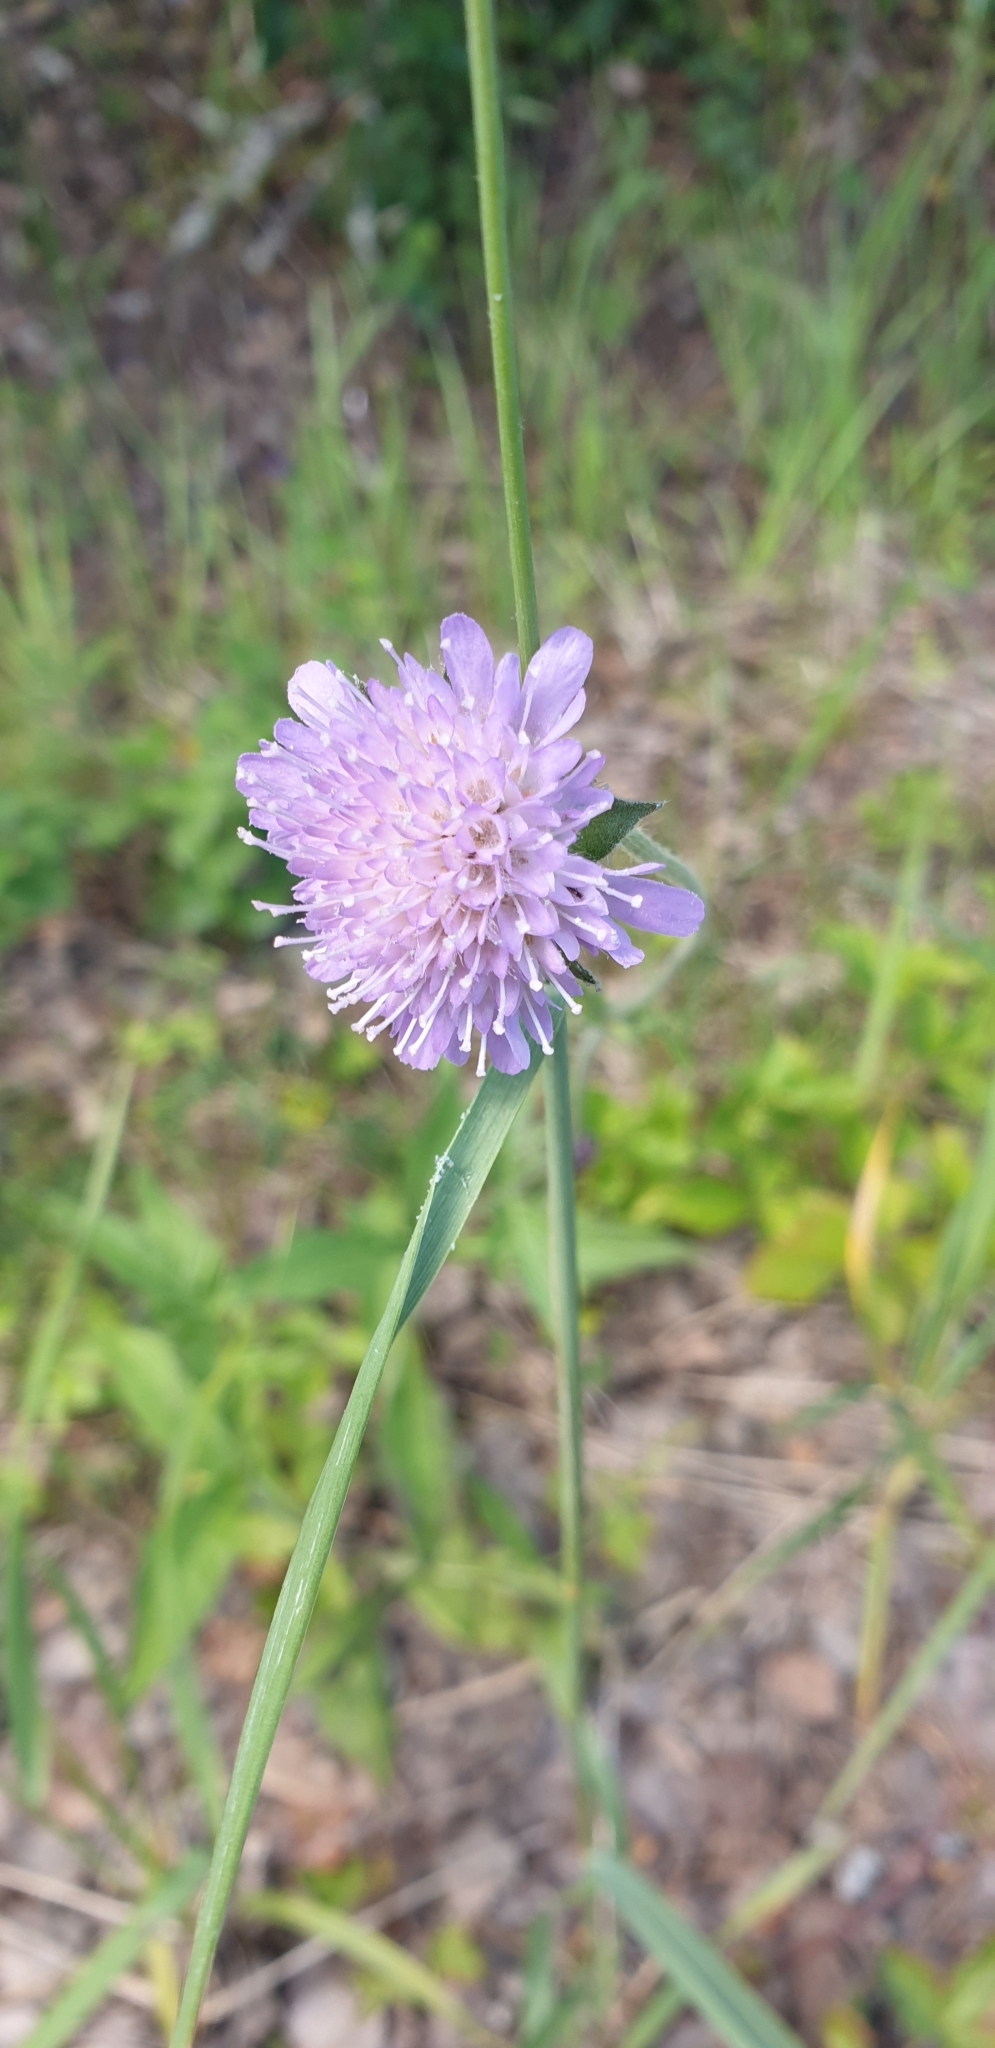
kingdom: Plantae
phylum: Tracheophyta
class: Magnoliopsida
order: Dipsacales
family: Caprifoliaceae
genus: Knautia
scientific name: Knautia arvensis
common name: Field scabiosa
